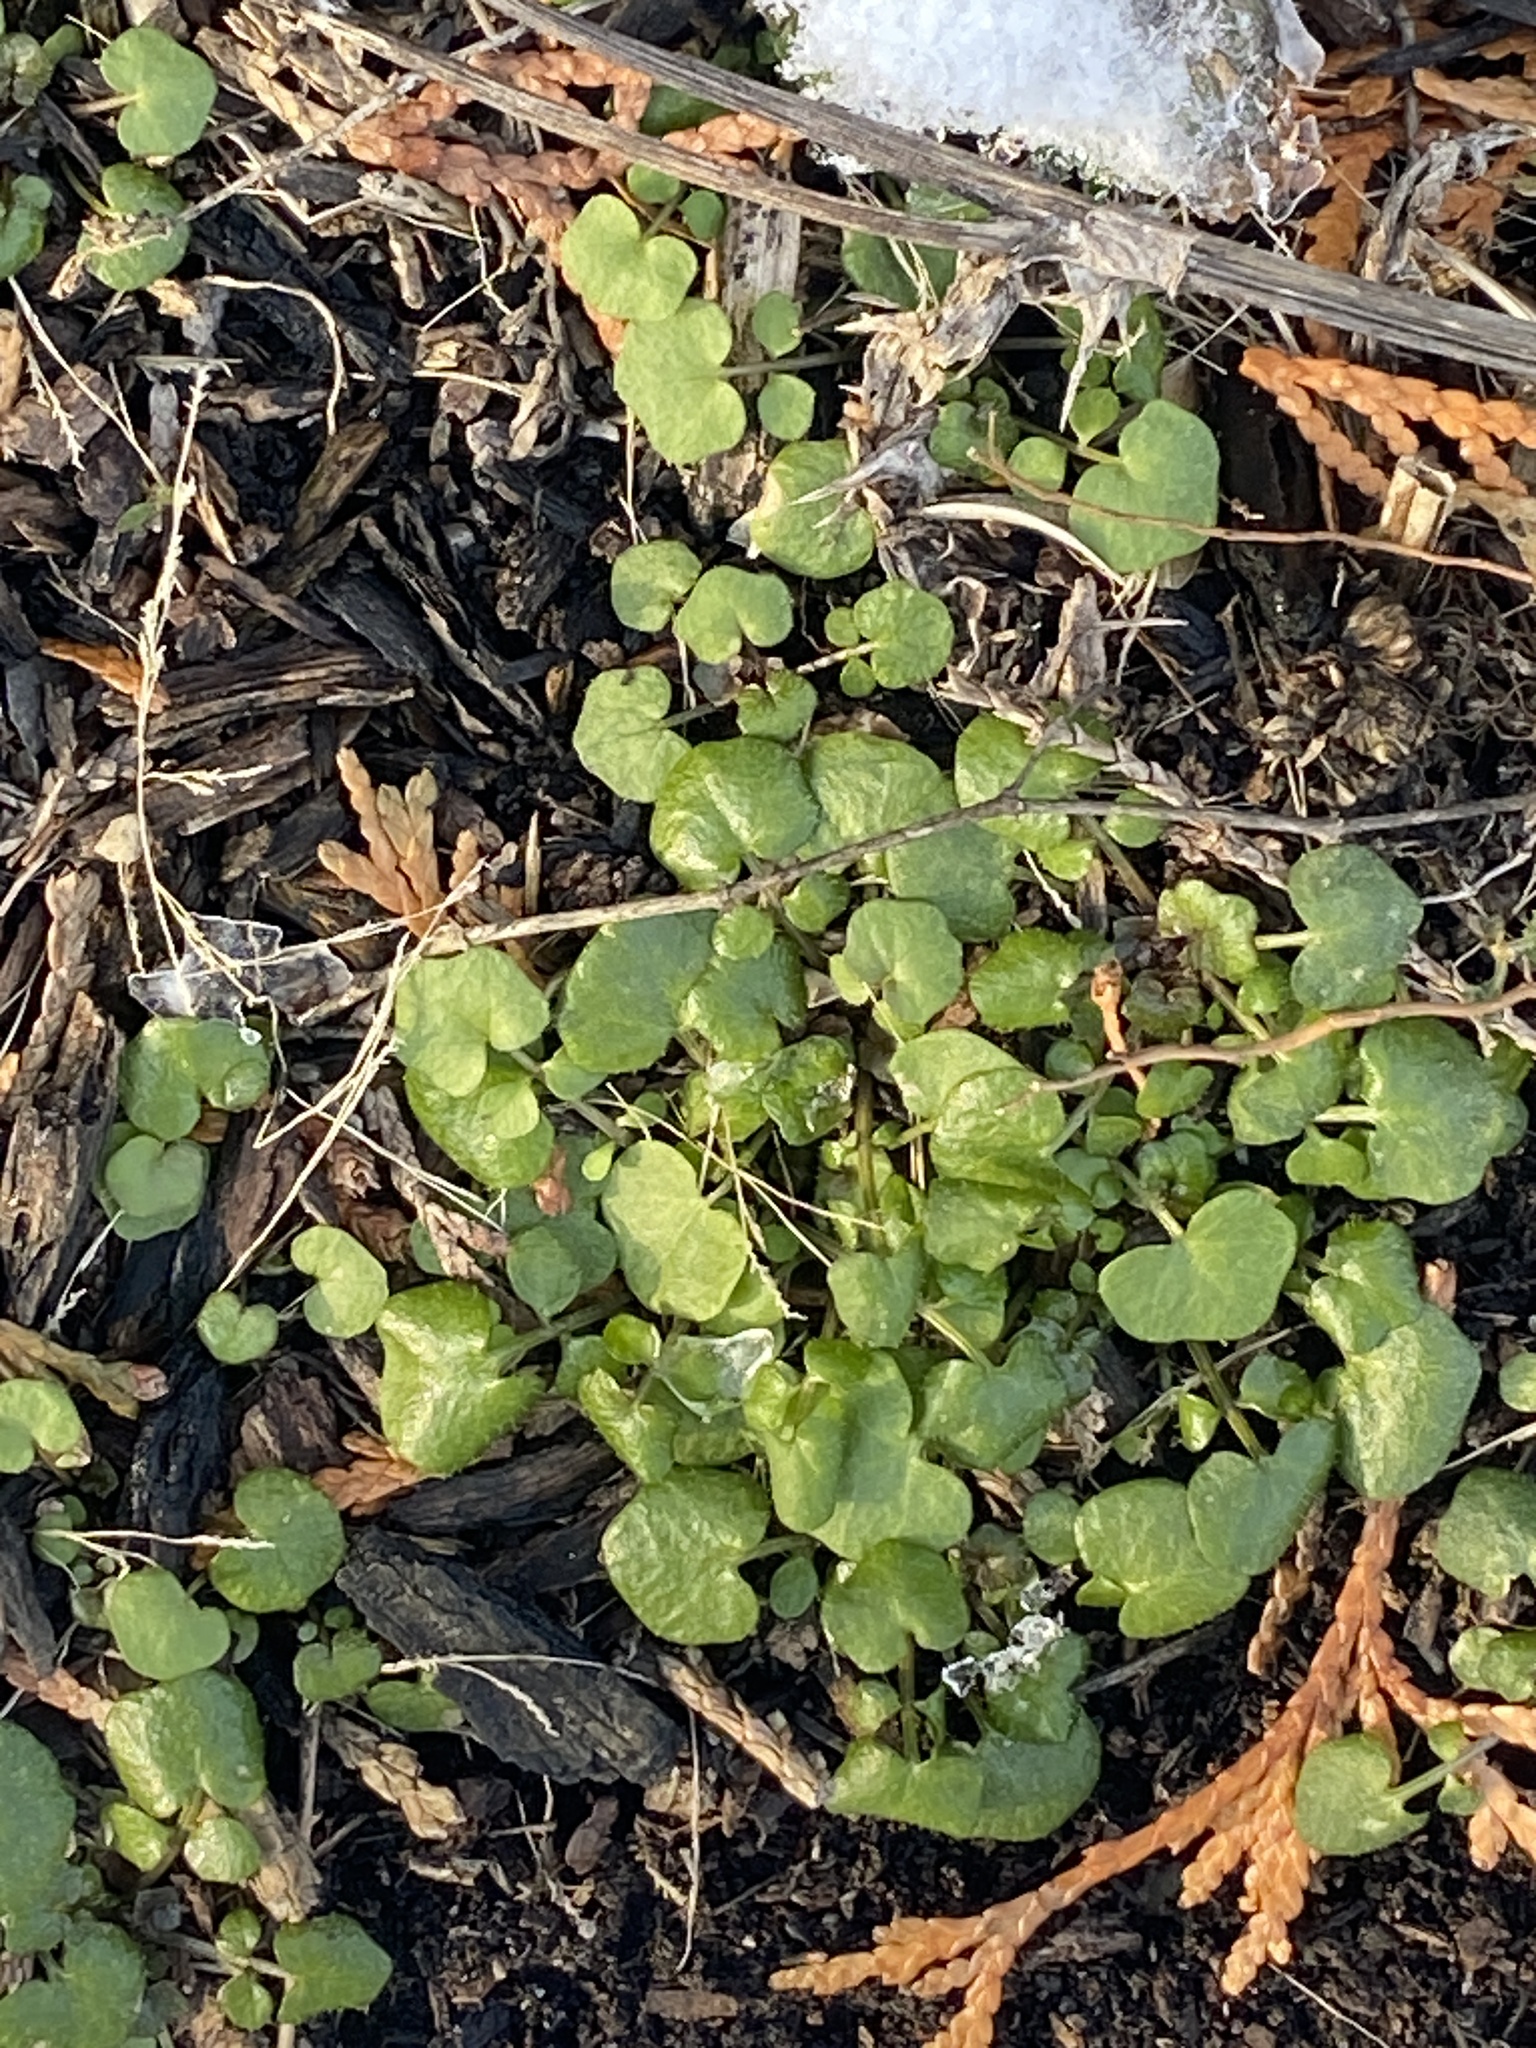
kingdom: Plantae
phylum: Tracheophyta
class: Magnoliopsida
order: Brassicales
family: Brassicaceae
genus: Cardamine
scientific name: Cardamine hirsuta
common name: Hairy bittercress
